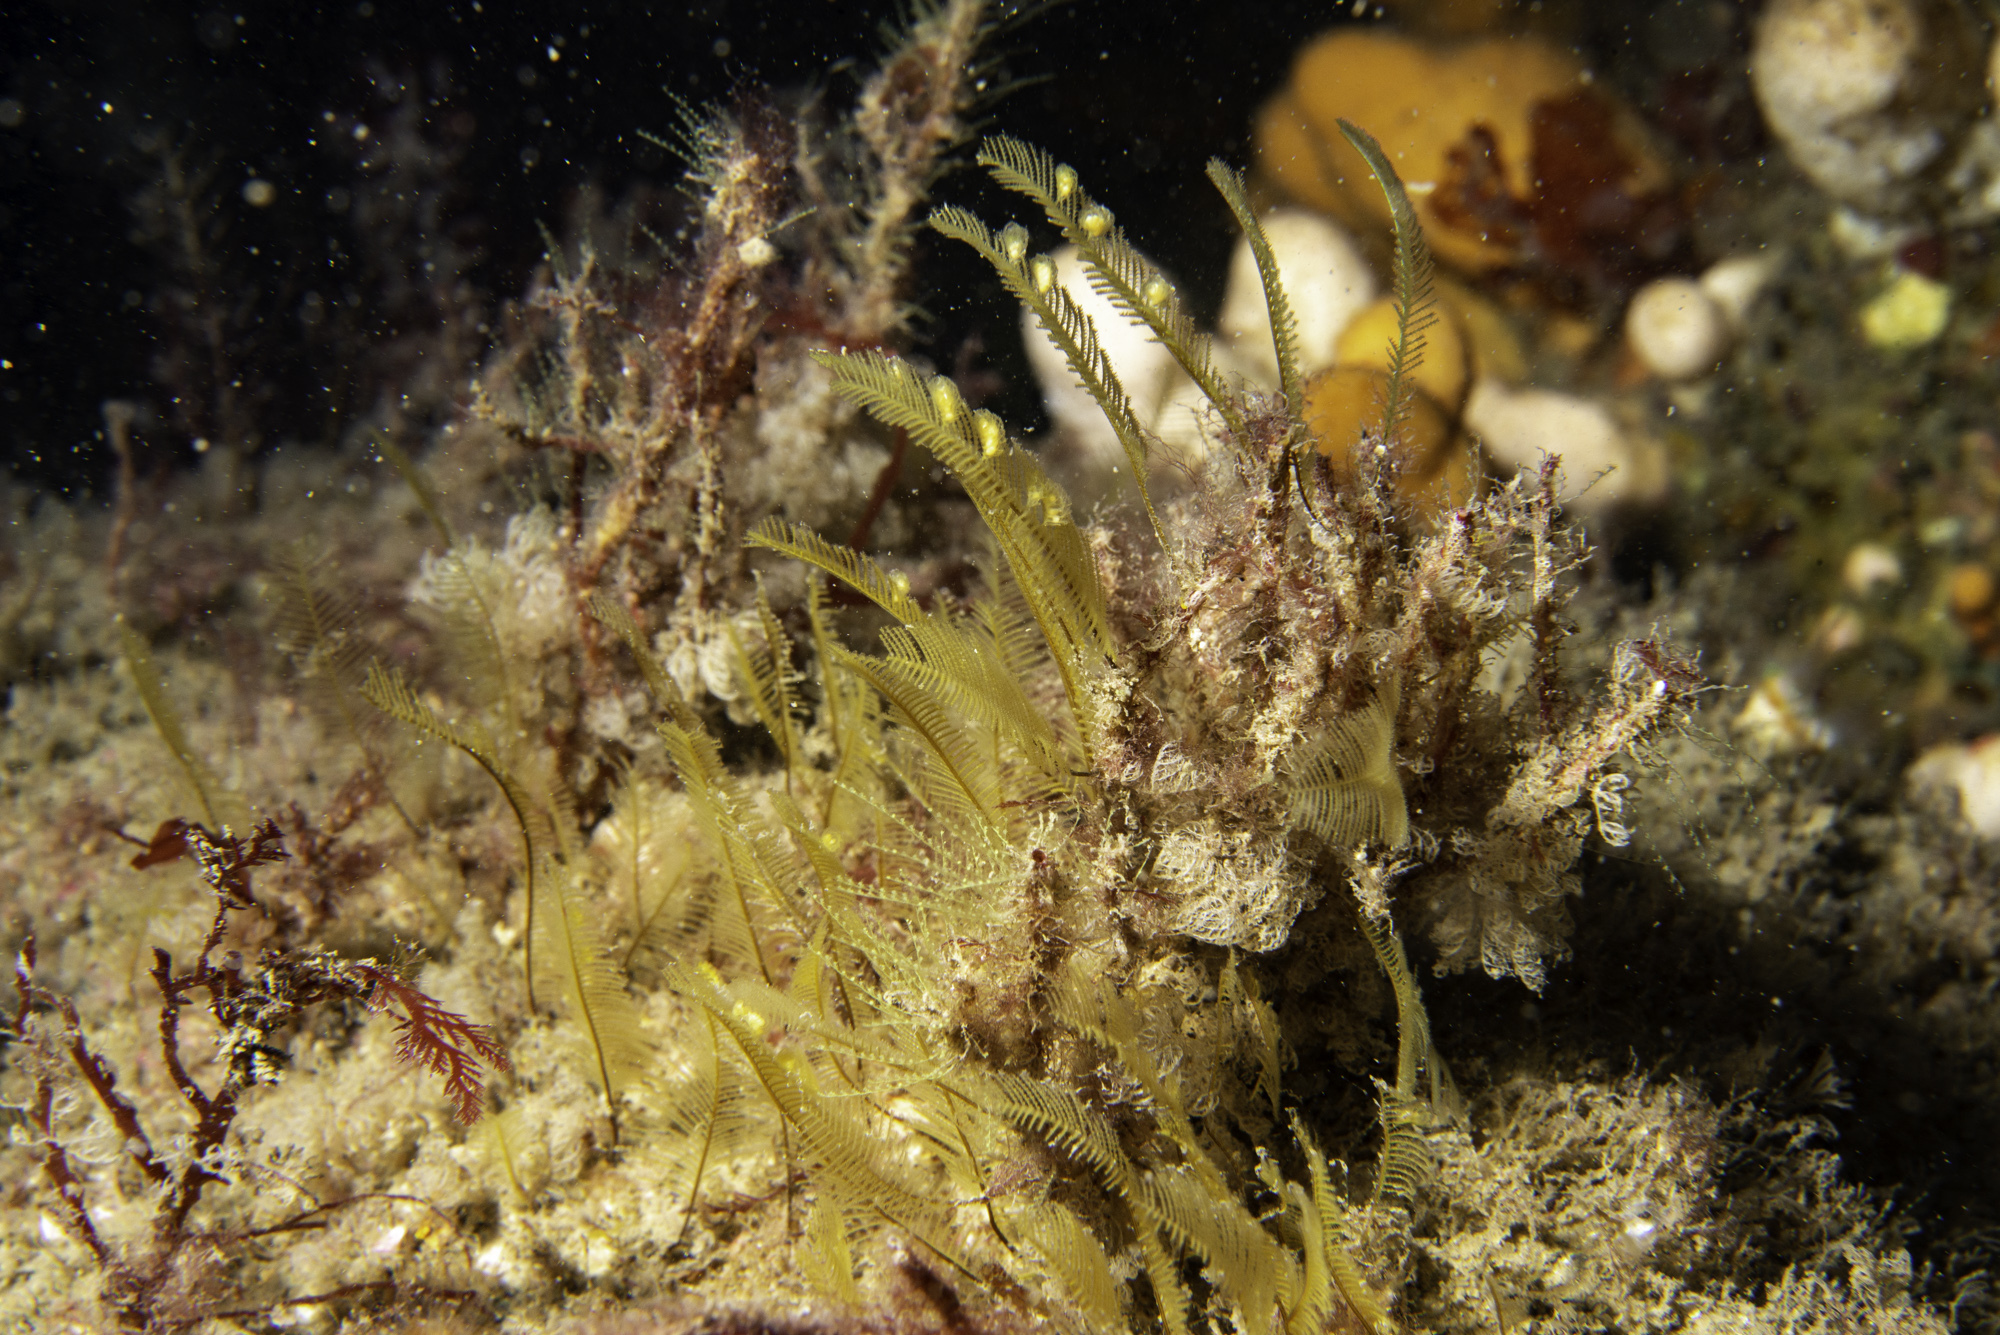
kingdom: Animalia
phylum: Cnidaria
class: Hydrozoa
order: Leptothecata
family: Halopterididae
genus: Antennella
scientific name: Antennella secundaria
